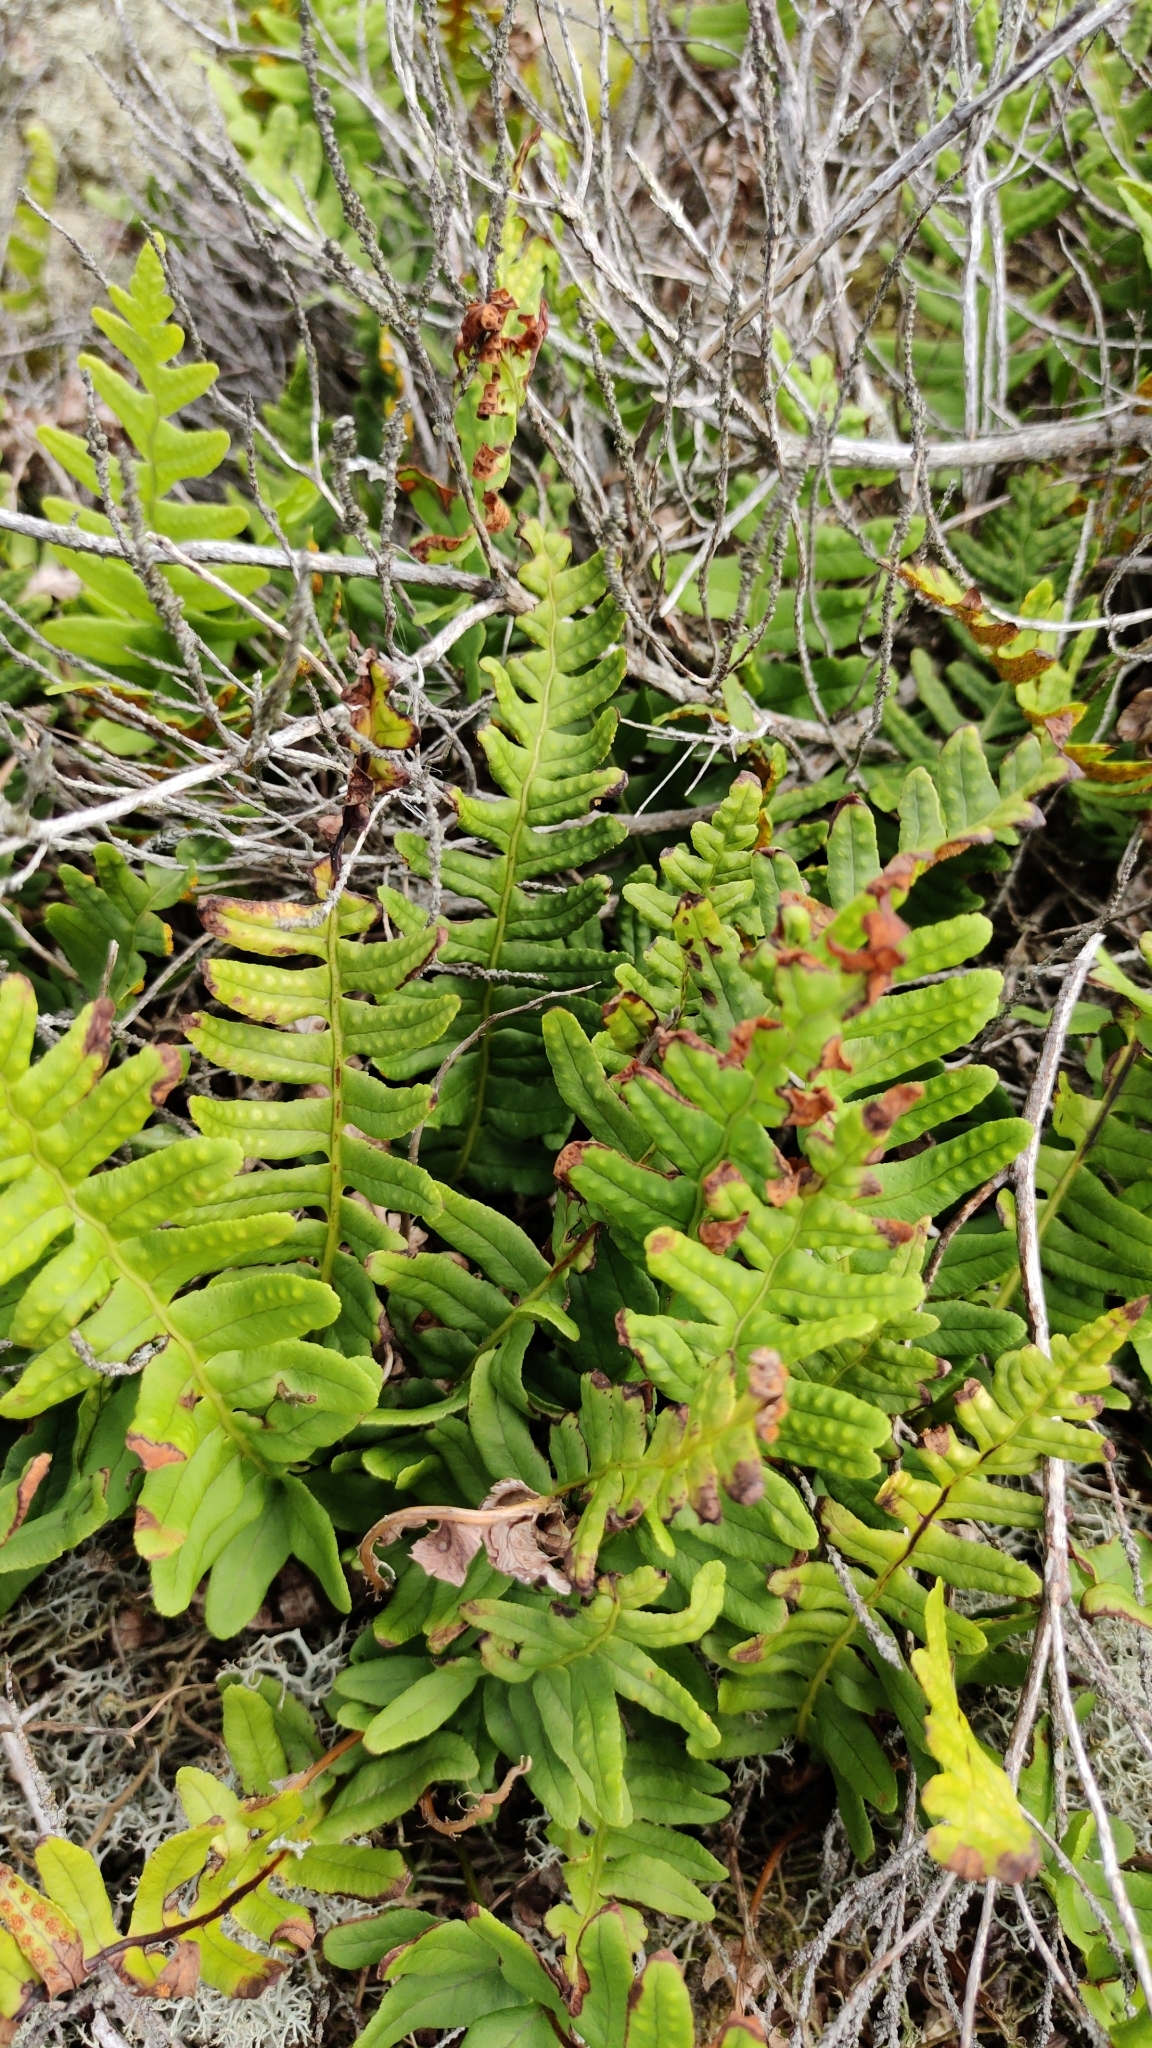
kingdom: Plantae
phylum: Tracheophyta
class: Polypodiopsida
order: Polypodiales
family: Polypodiaceae
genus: Polypodium
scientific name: Polypodium vulgare
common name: Common polypody
